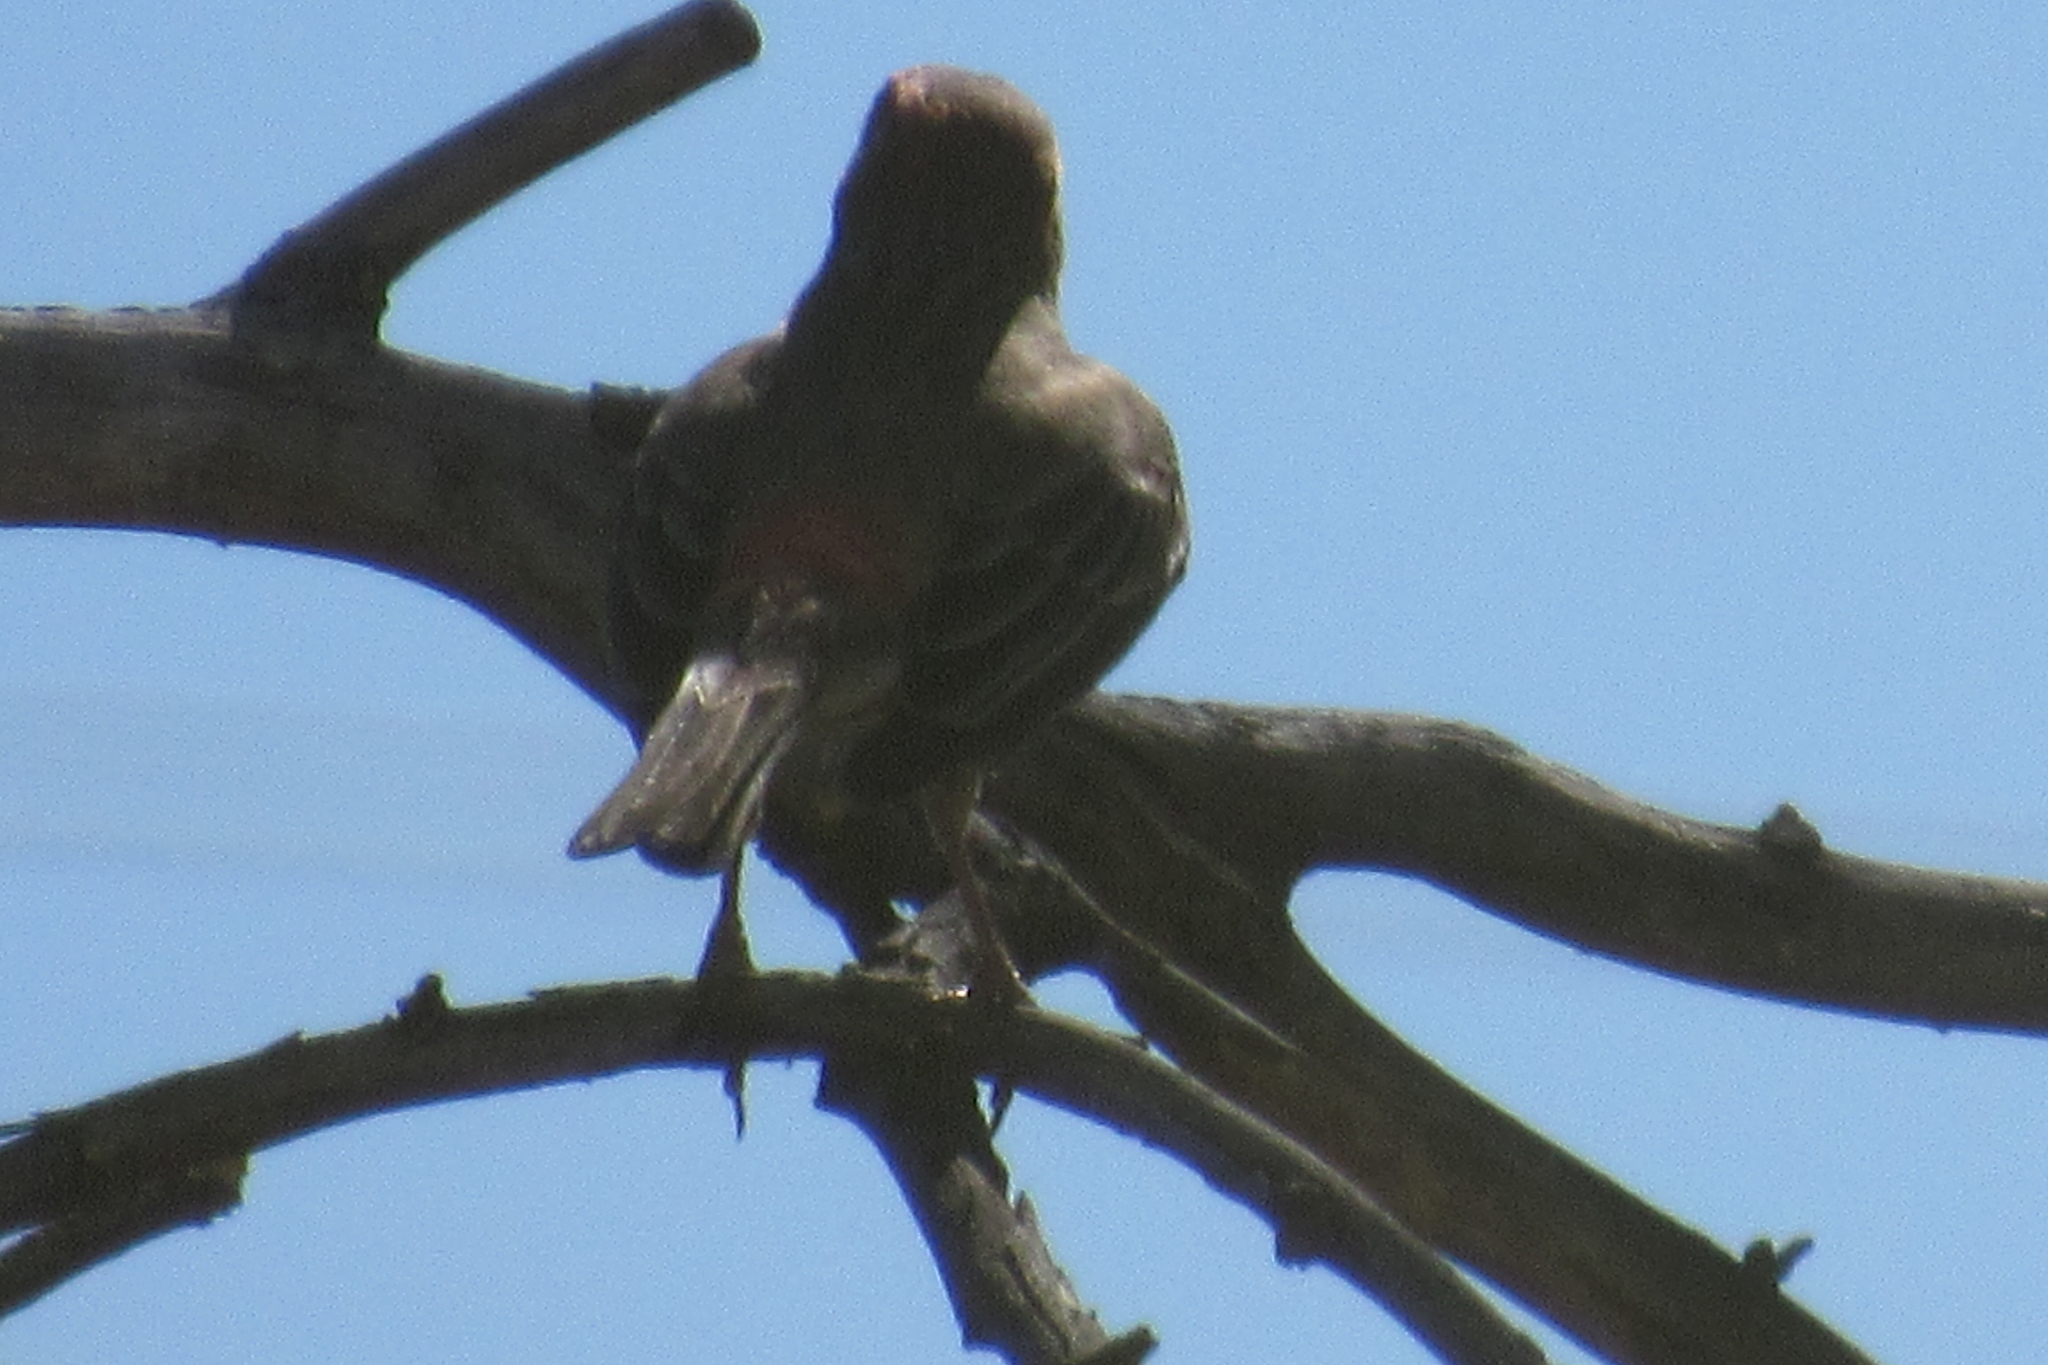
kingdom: Animalia
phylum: Chordata
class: Aves
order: Passeriformes
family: Fringillidae
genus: Haemorhous
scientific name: Haemorhous mexicanus
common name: House finch
